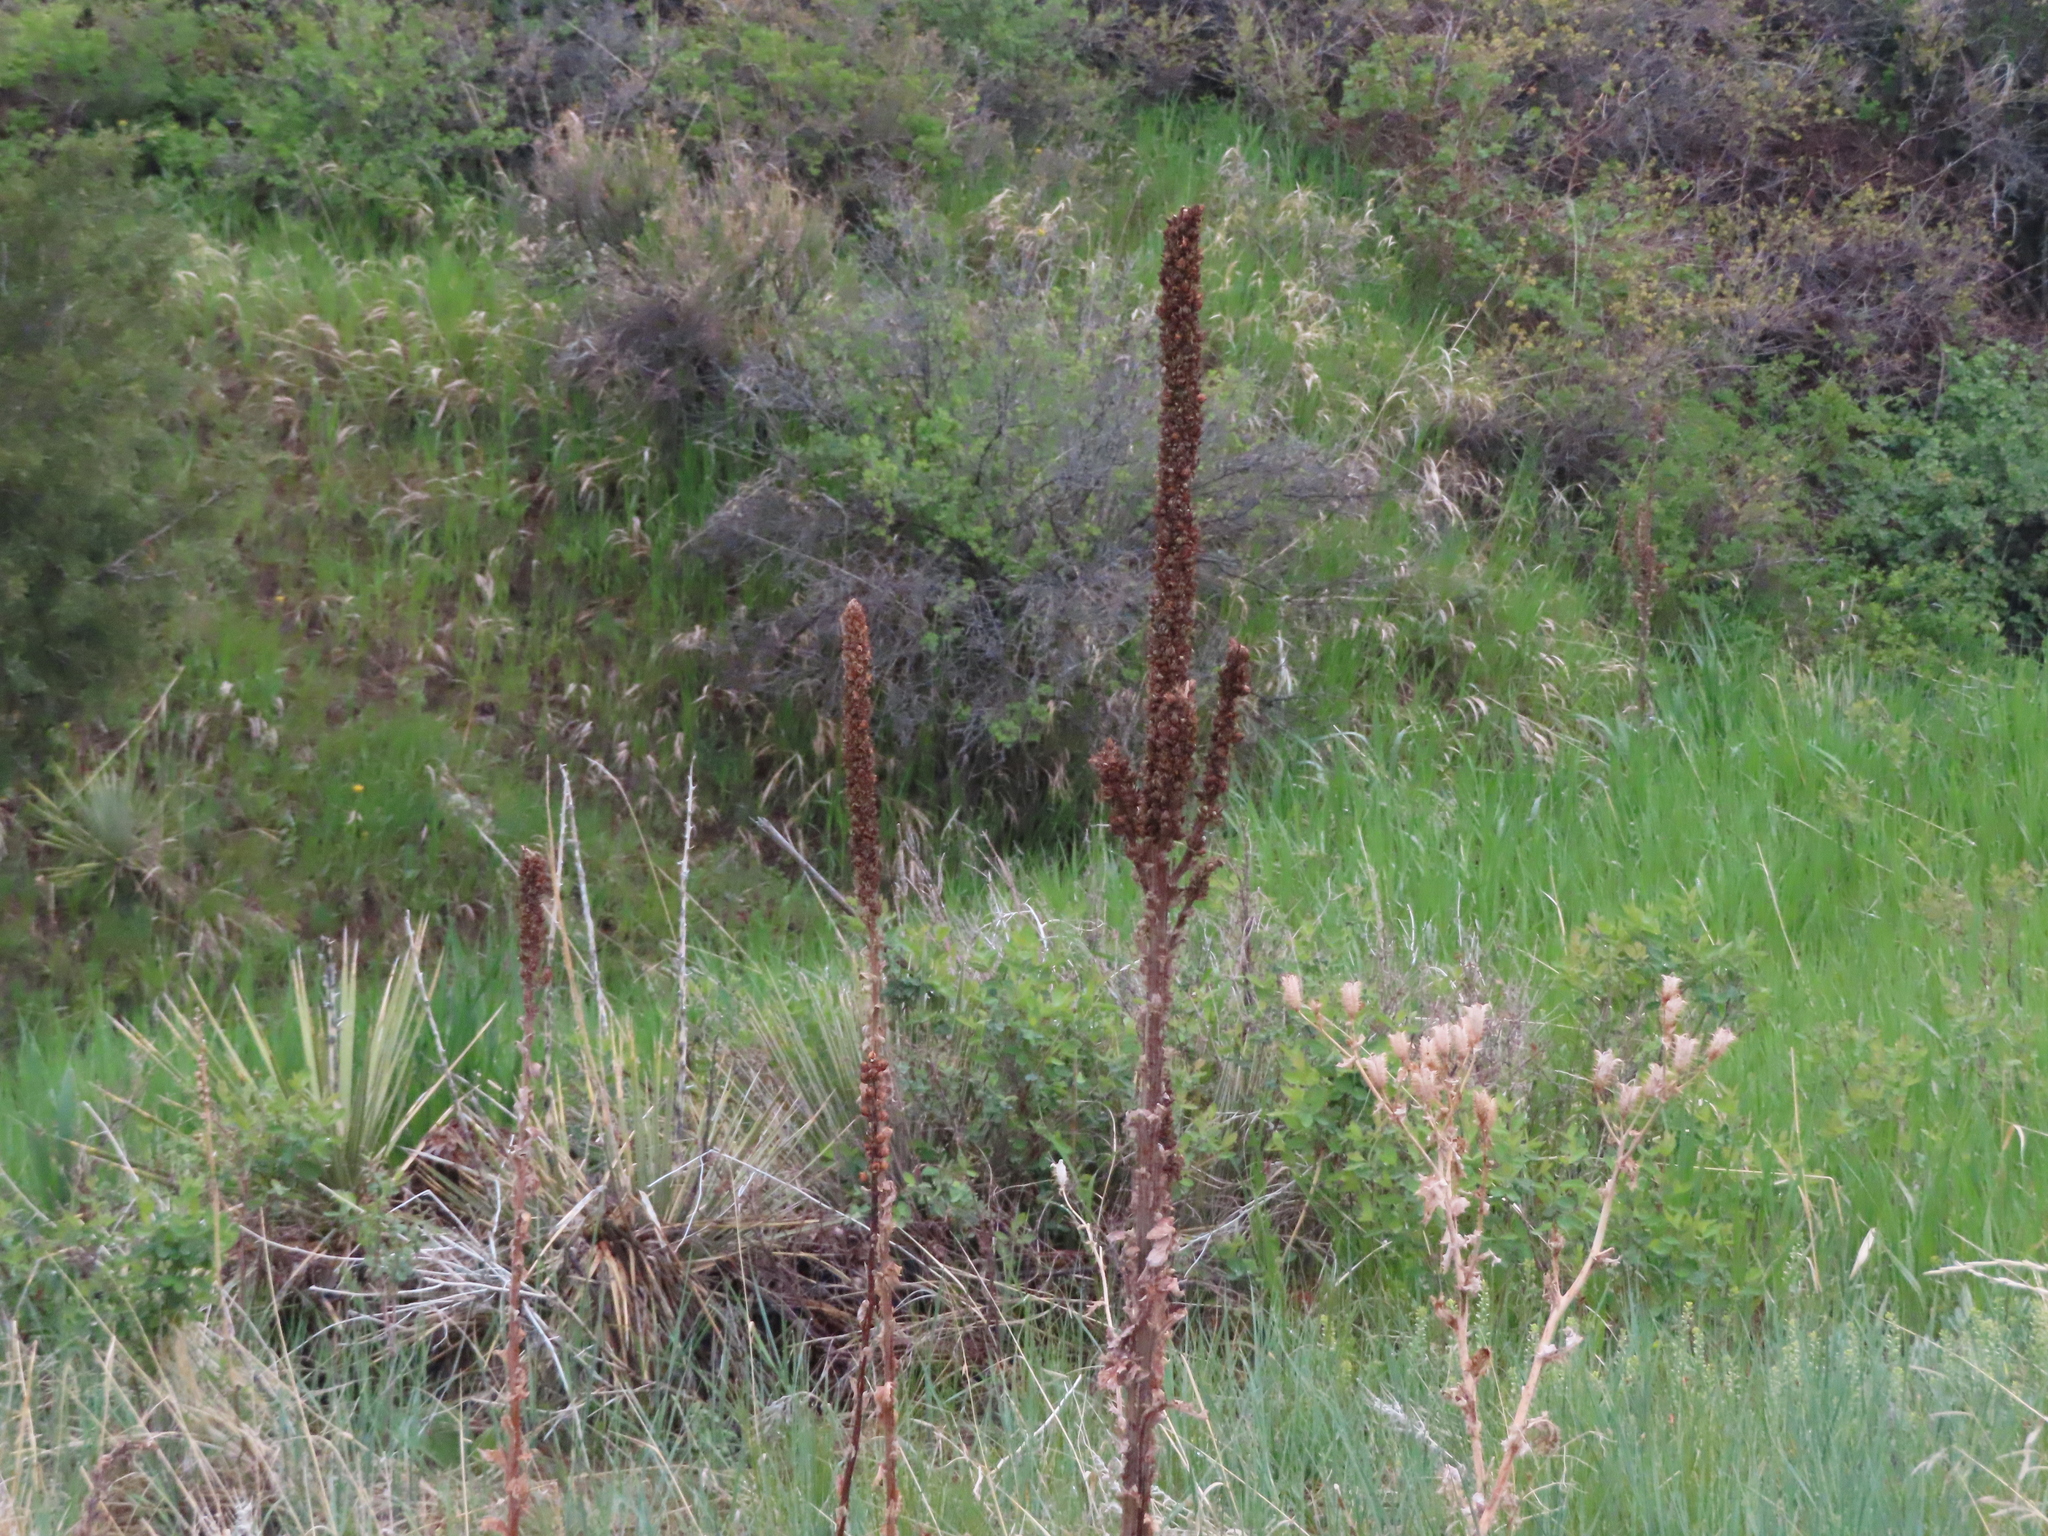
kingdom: Plantae
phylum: Tracheophyta
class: Magnoliopsida
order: Lamiales
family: Scrophulariaceae
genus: Verbascum
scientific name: Verbascum thapsus
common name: Common mullein
